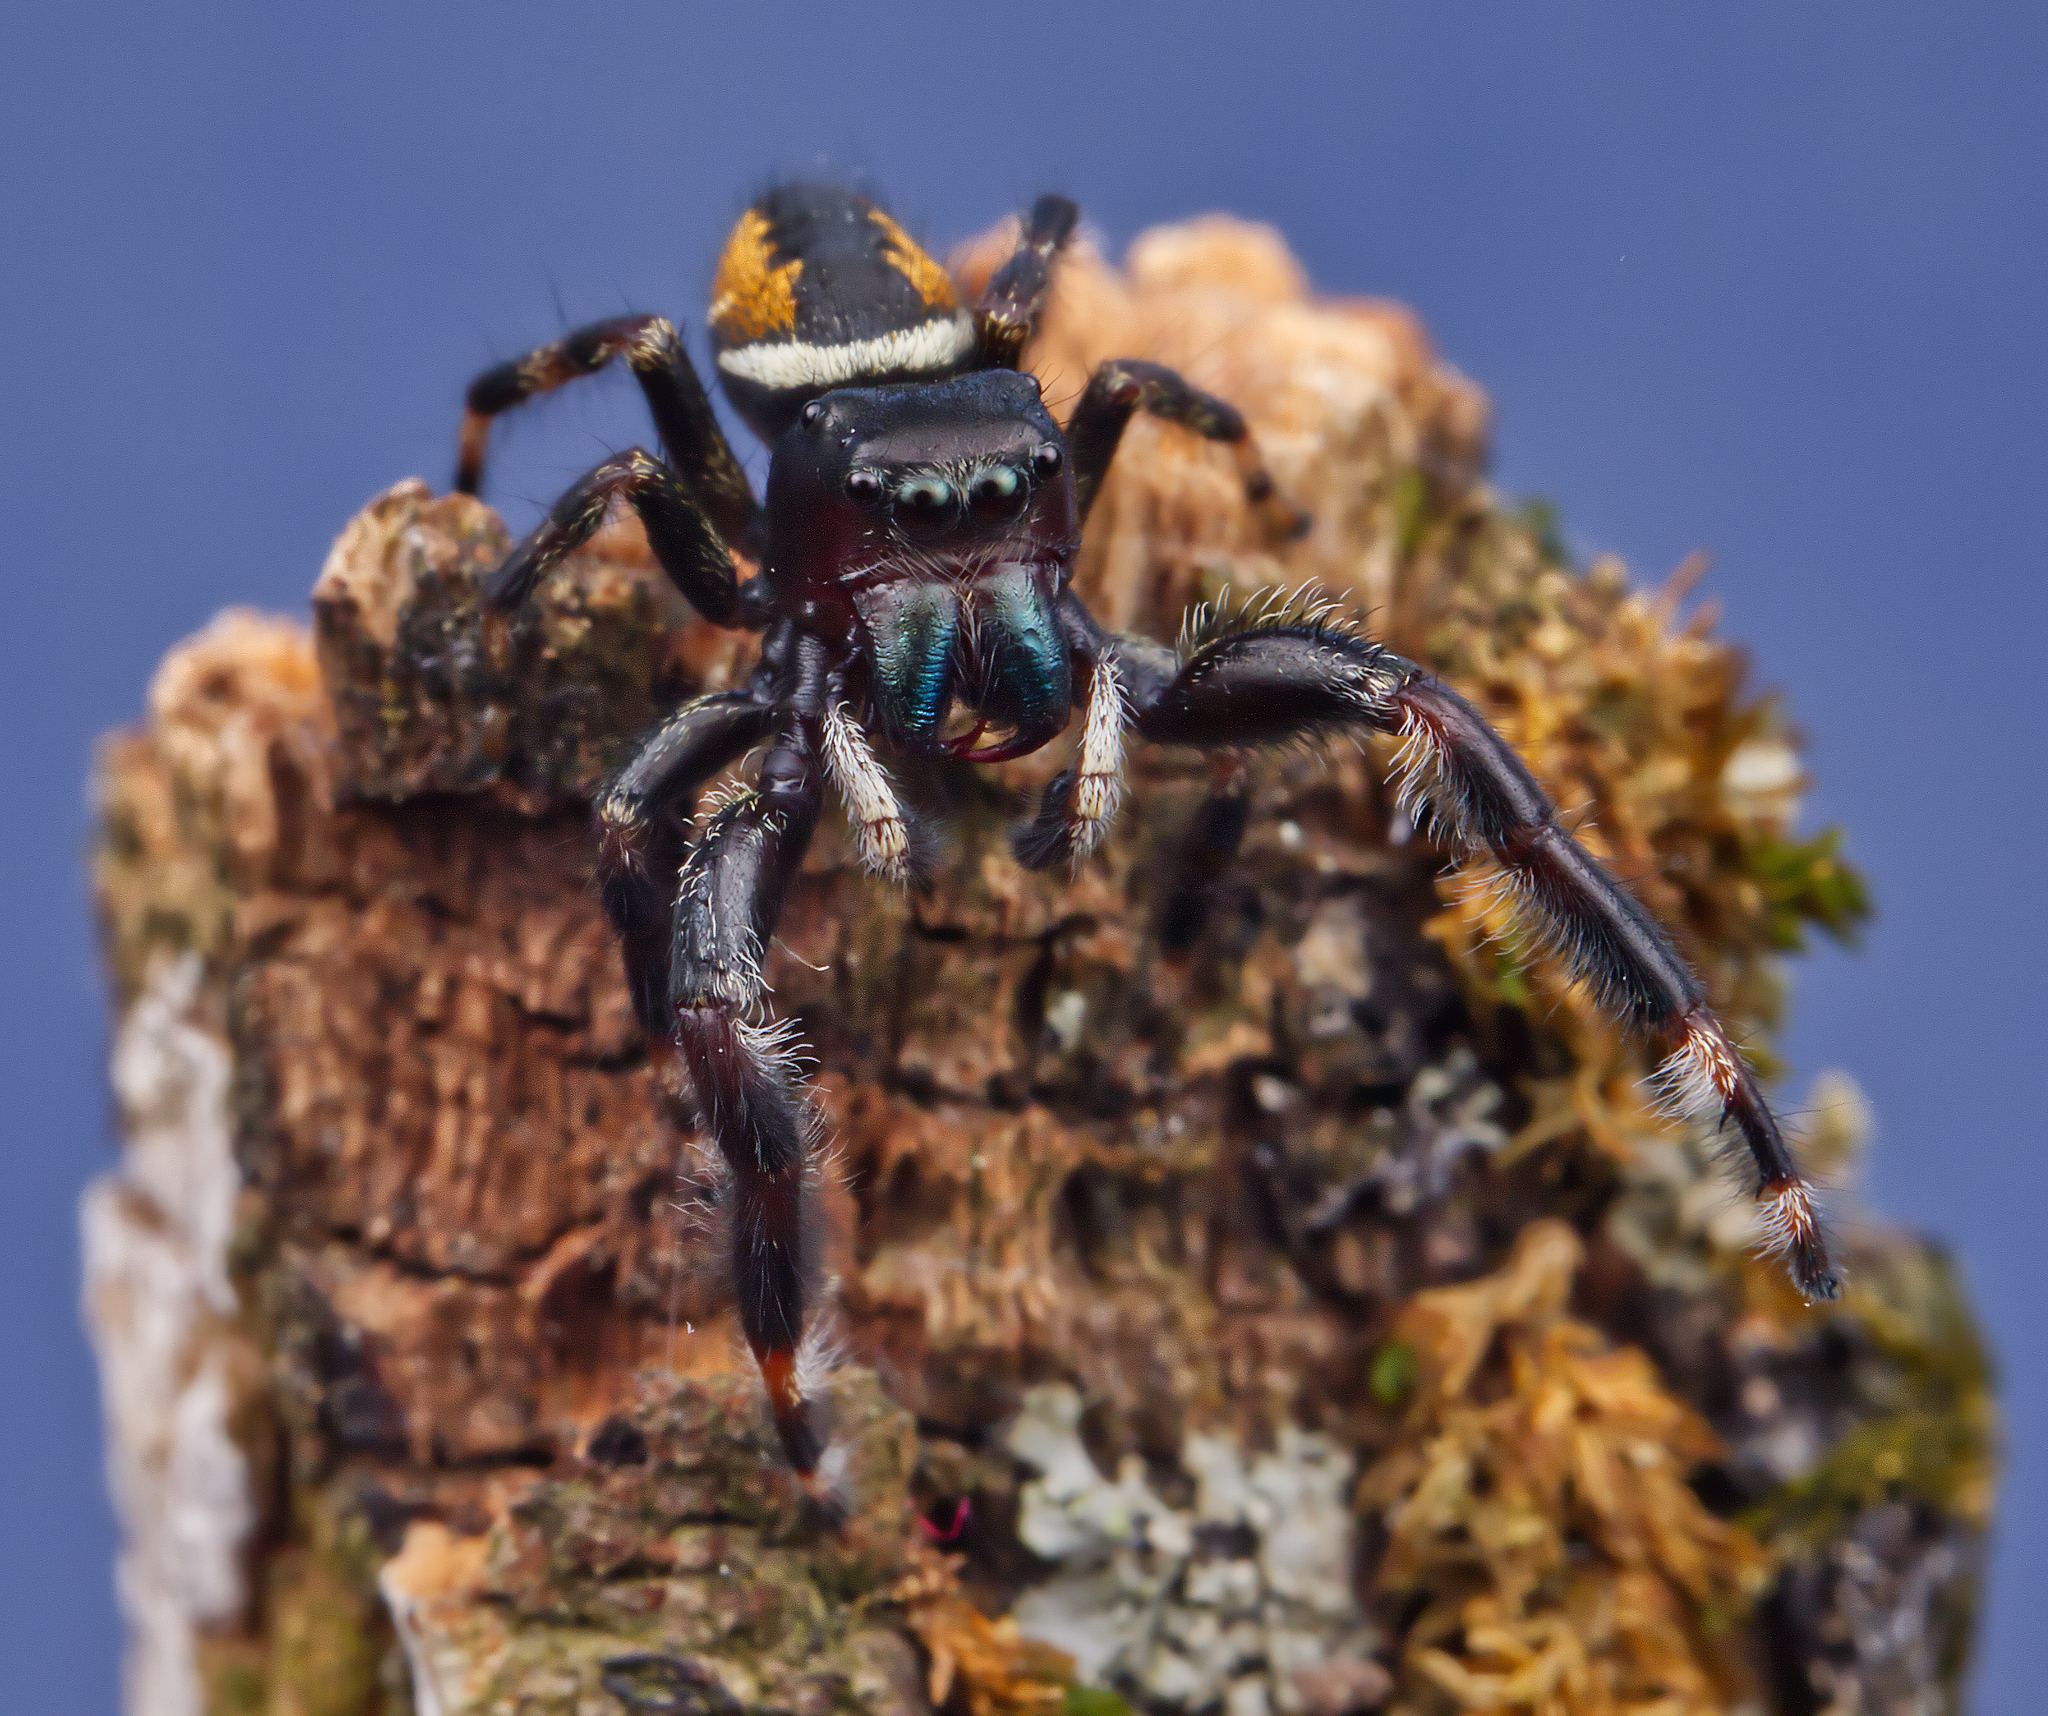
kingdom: Animalia
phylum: Arthropoda
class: Arachnida
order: Araneae
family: Salticidae
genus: Phidippus
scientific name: Phidippus clarus
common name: Brilliant jumping spider
